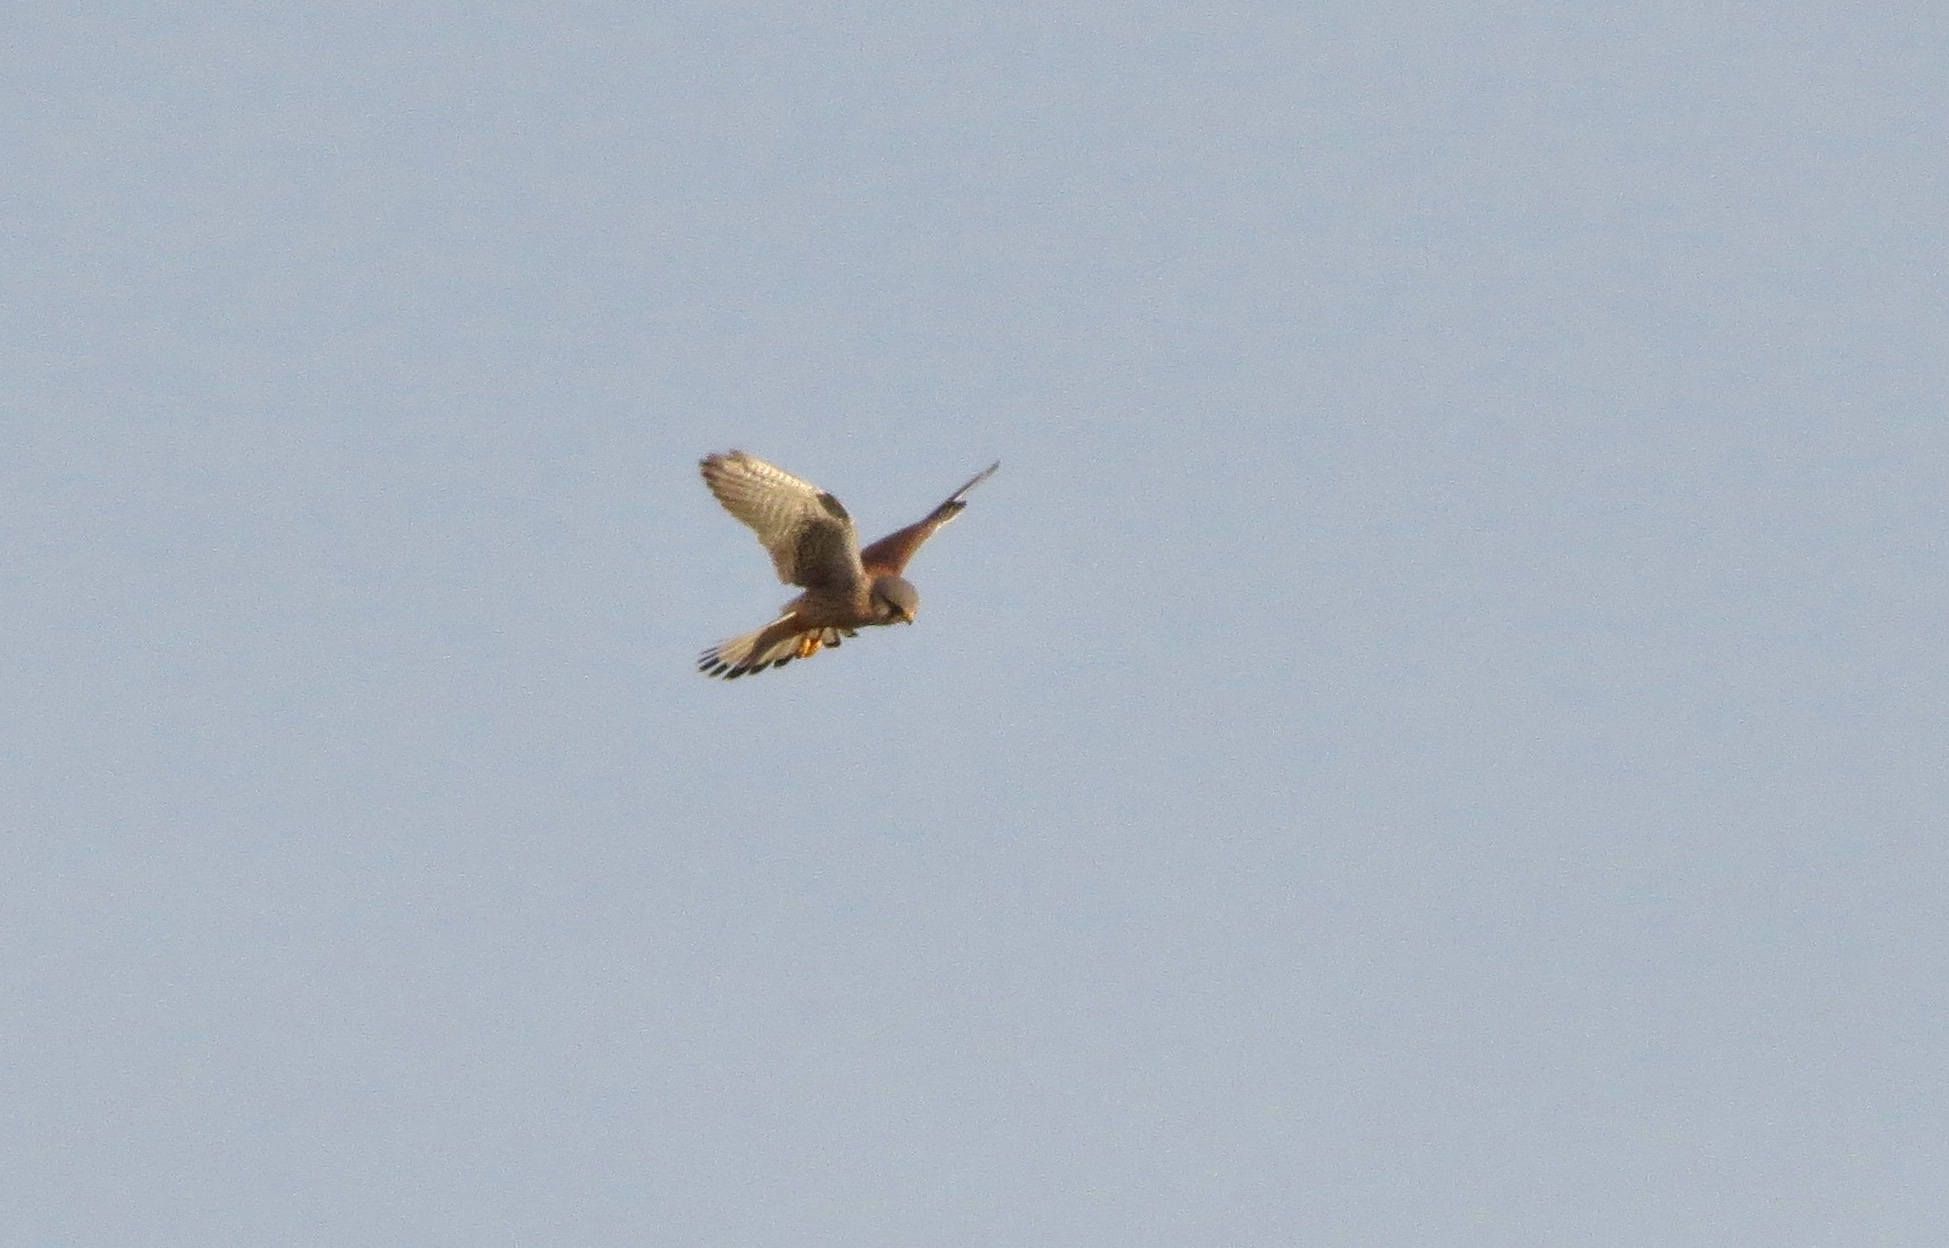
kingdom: Animalia
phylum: Chordata
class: Aves
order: Falconiformes
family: Falconidae
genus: Falco
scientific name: Falco tinnunculus
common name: Common kestrel
